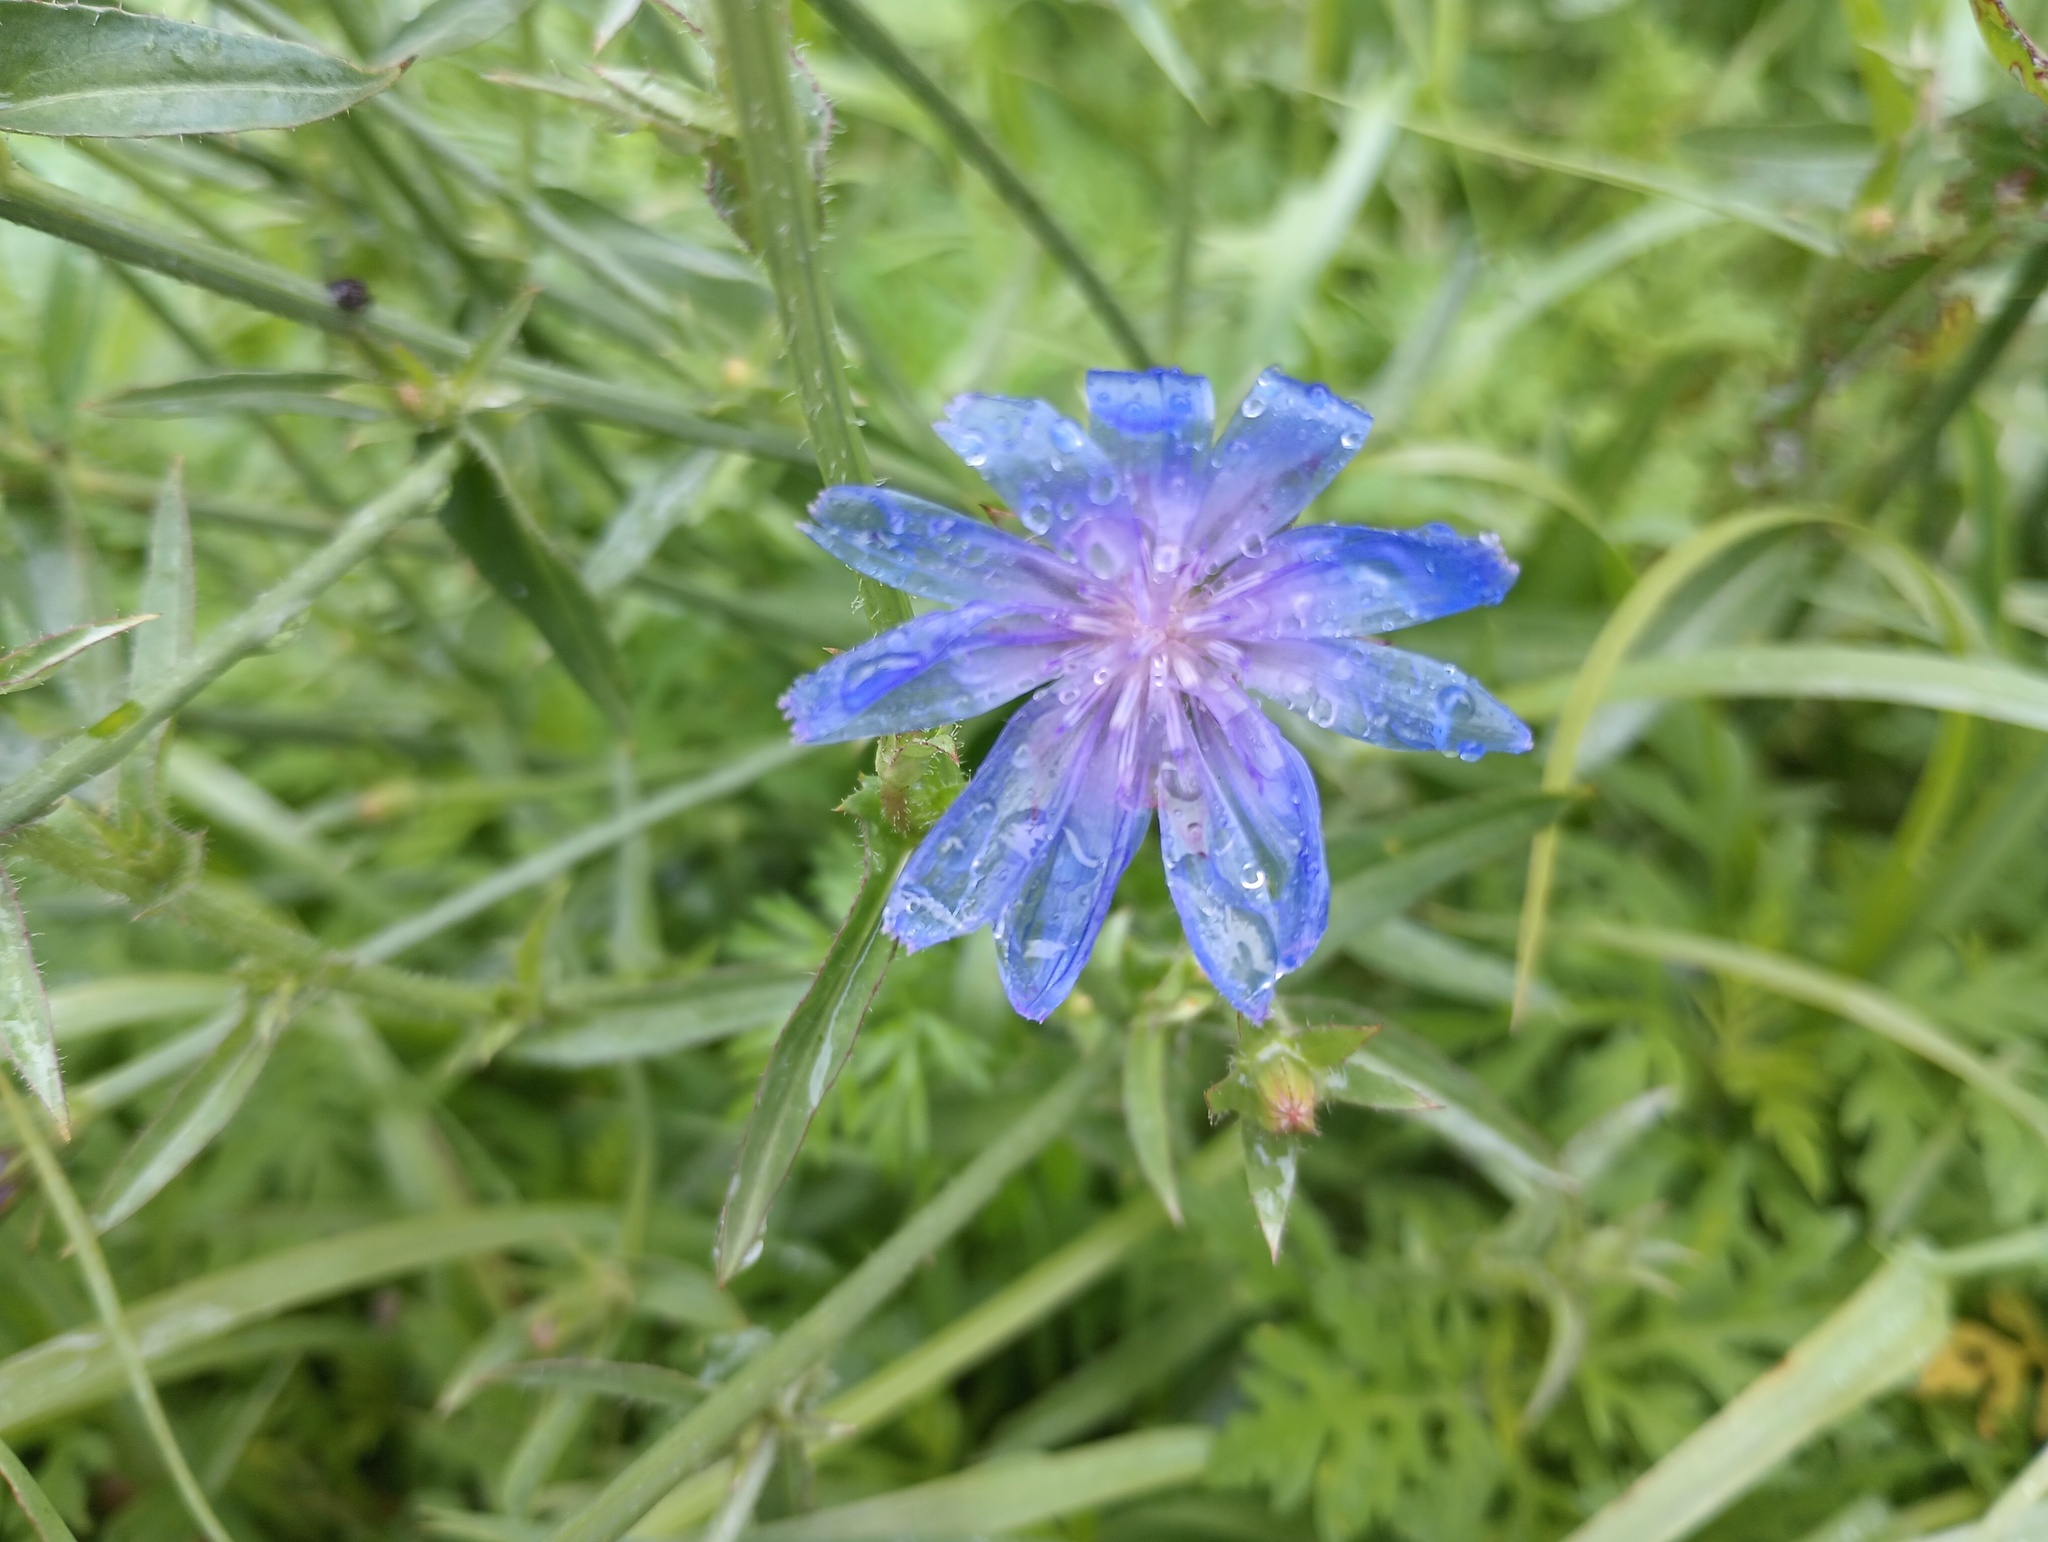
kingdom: Plantae
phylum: Tracheophyta
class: Magnoliopsida
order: Asterales
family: Asteraceae
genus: Cichorium
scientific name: Cichorium intybus
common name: Chicory
